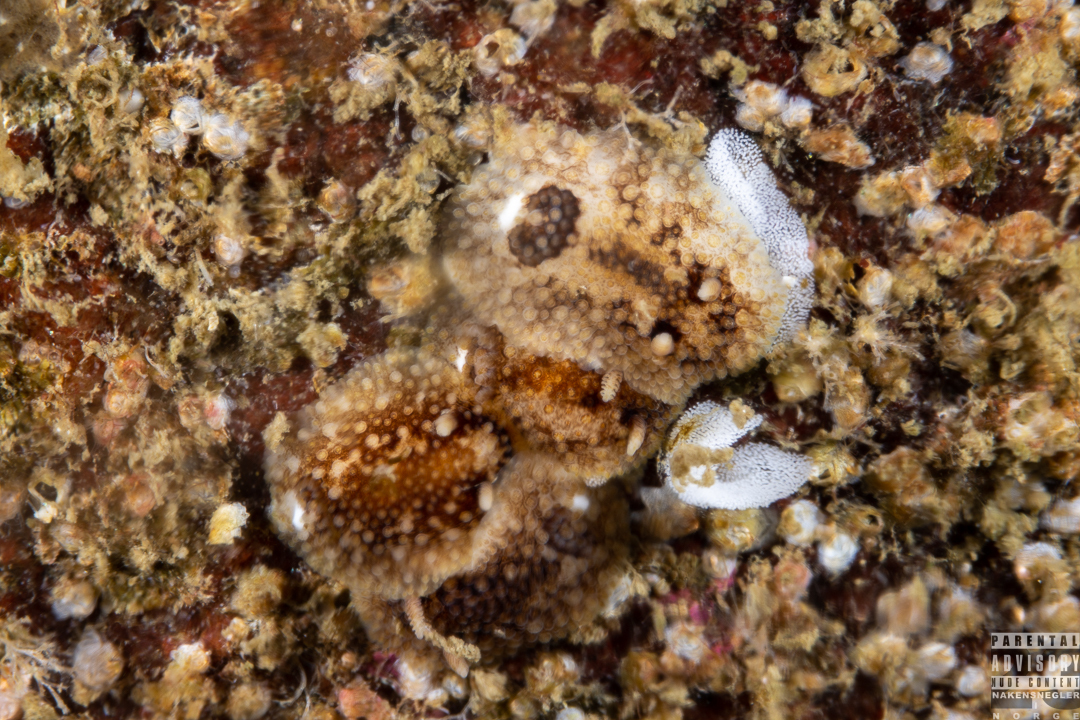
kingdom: Animalia
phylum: Mollusca
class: Gastropoda
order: Nudibranchia
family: Onchidorididae
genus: Onchidoris
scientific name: Onchidoris bilamellata
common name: Barnacle-eating onchidoris
